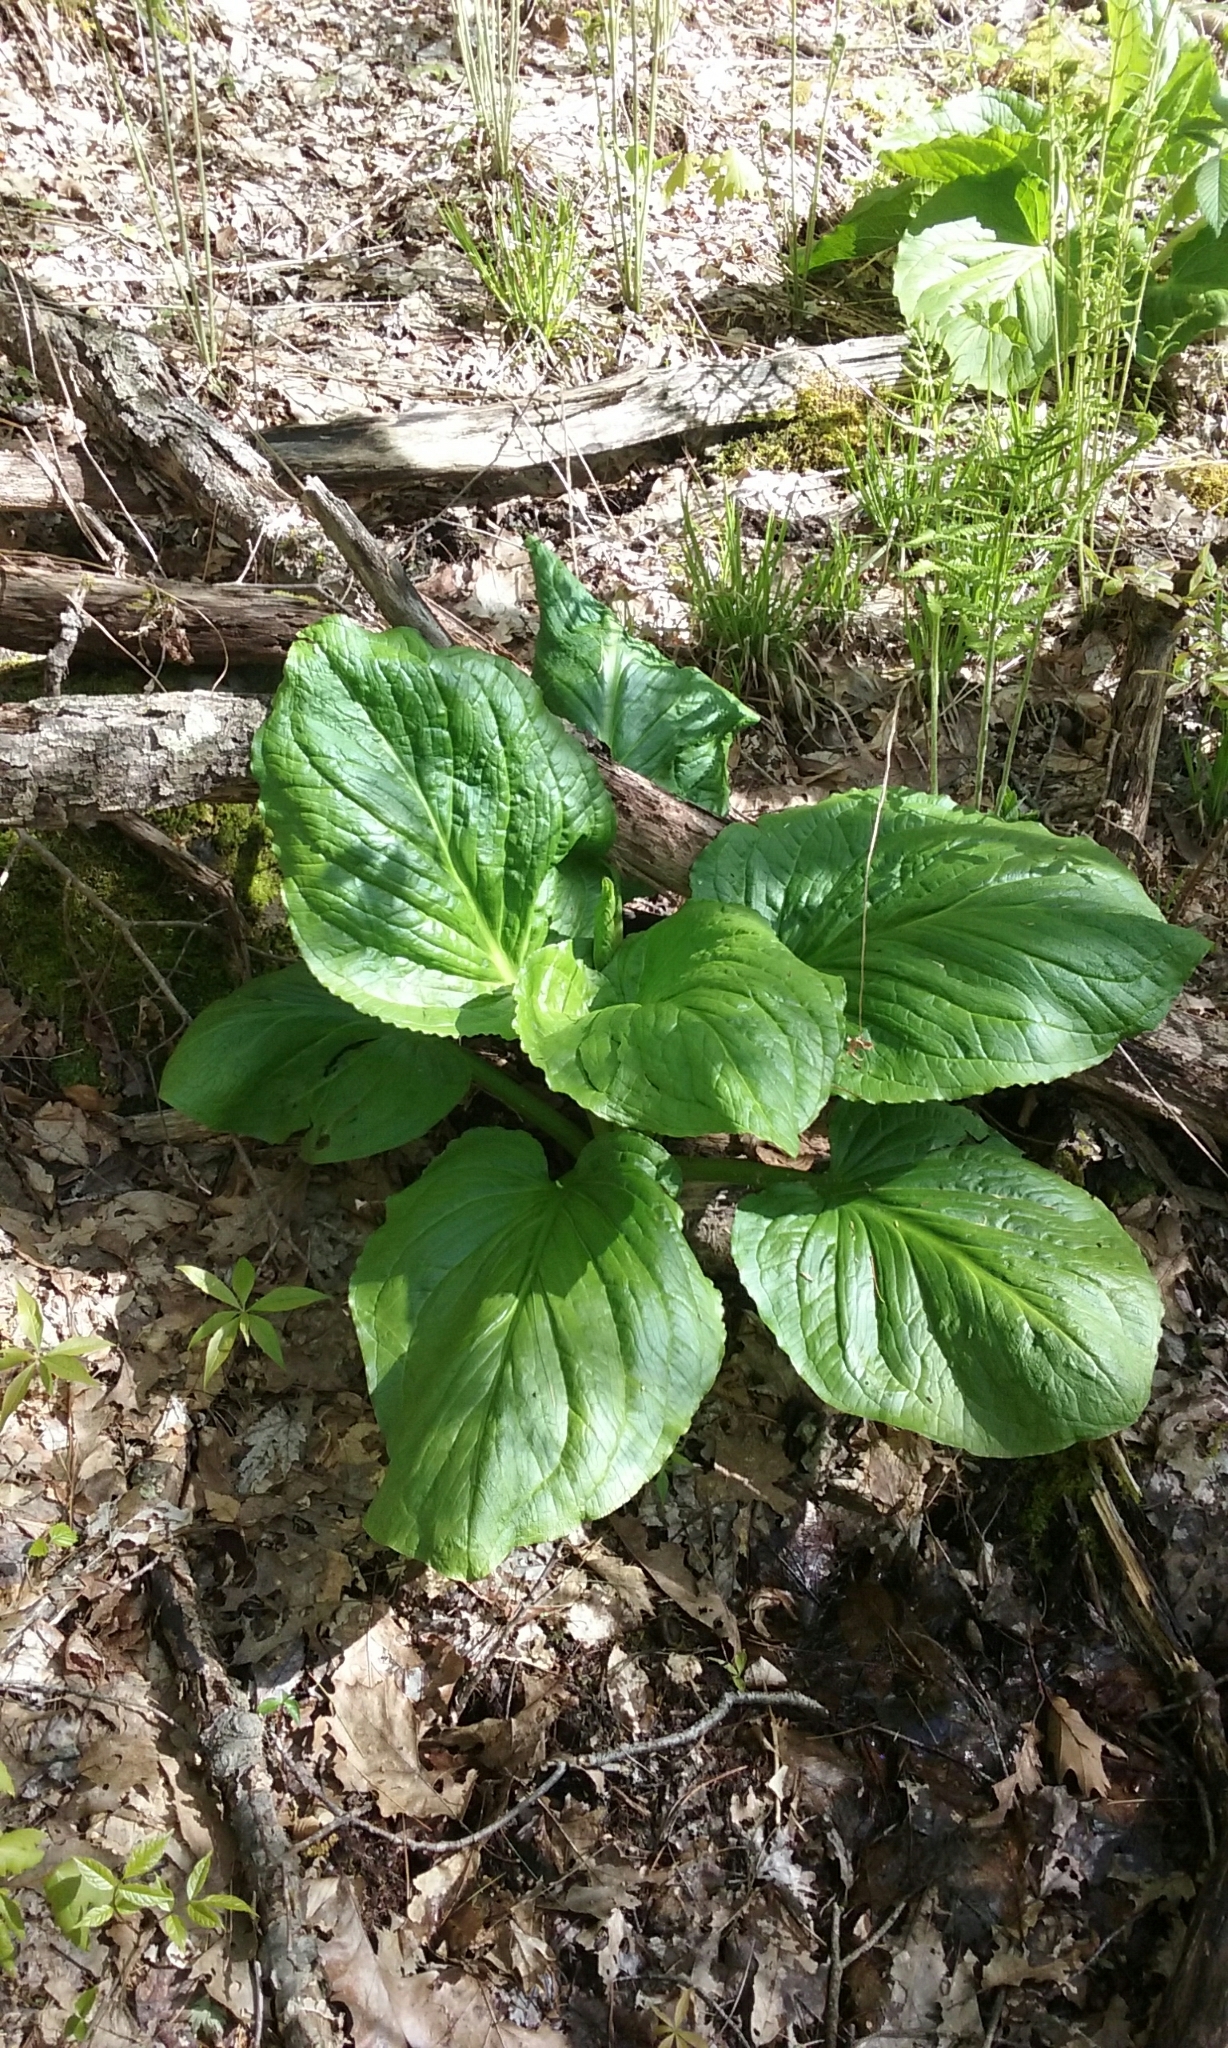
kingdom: Plantae
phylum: Tracheophyta
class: Liliopsida
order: Alismatales
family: Araceae
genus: Symplocarpus
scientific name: Symplocarpus foetidus
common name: Eastern skunk cabbage
